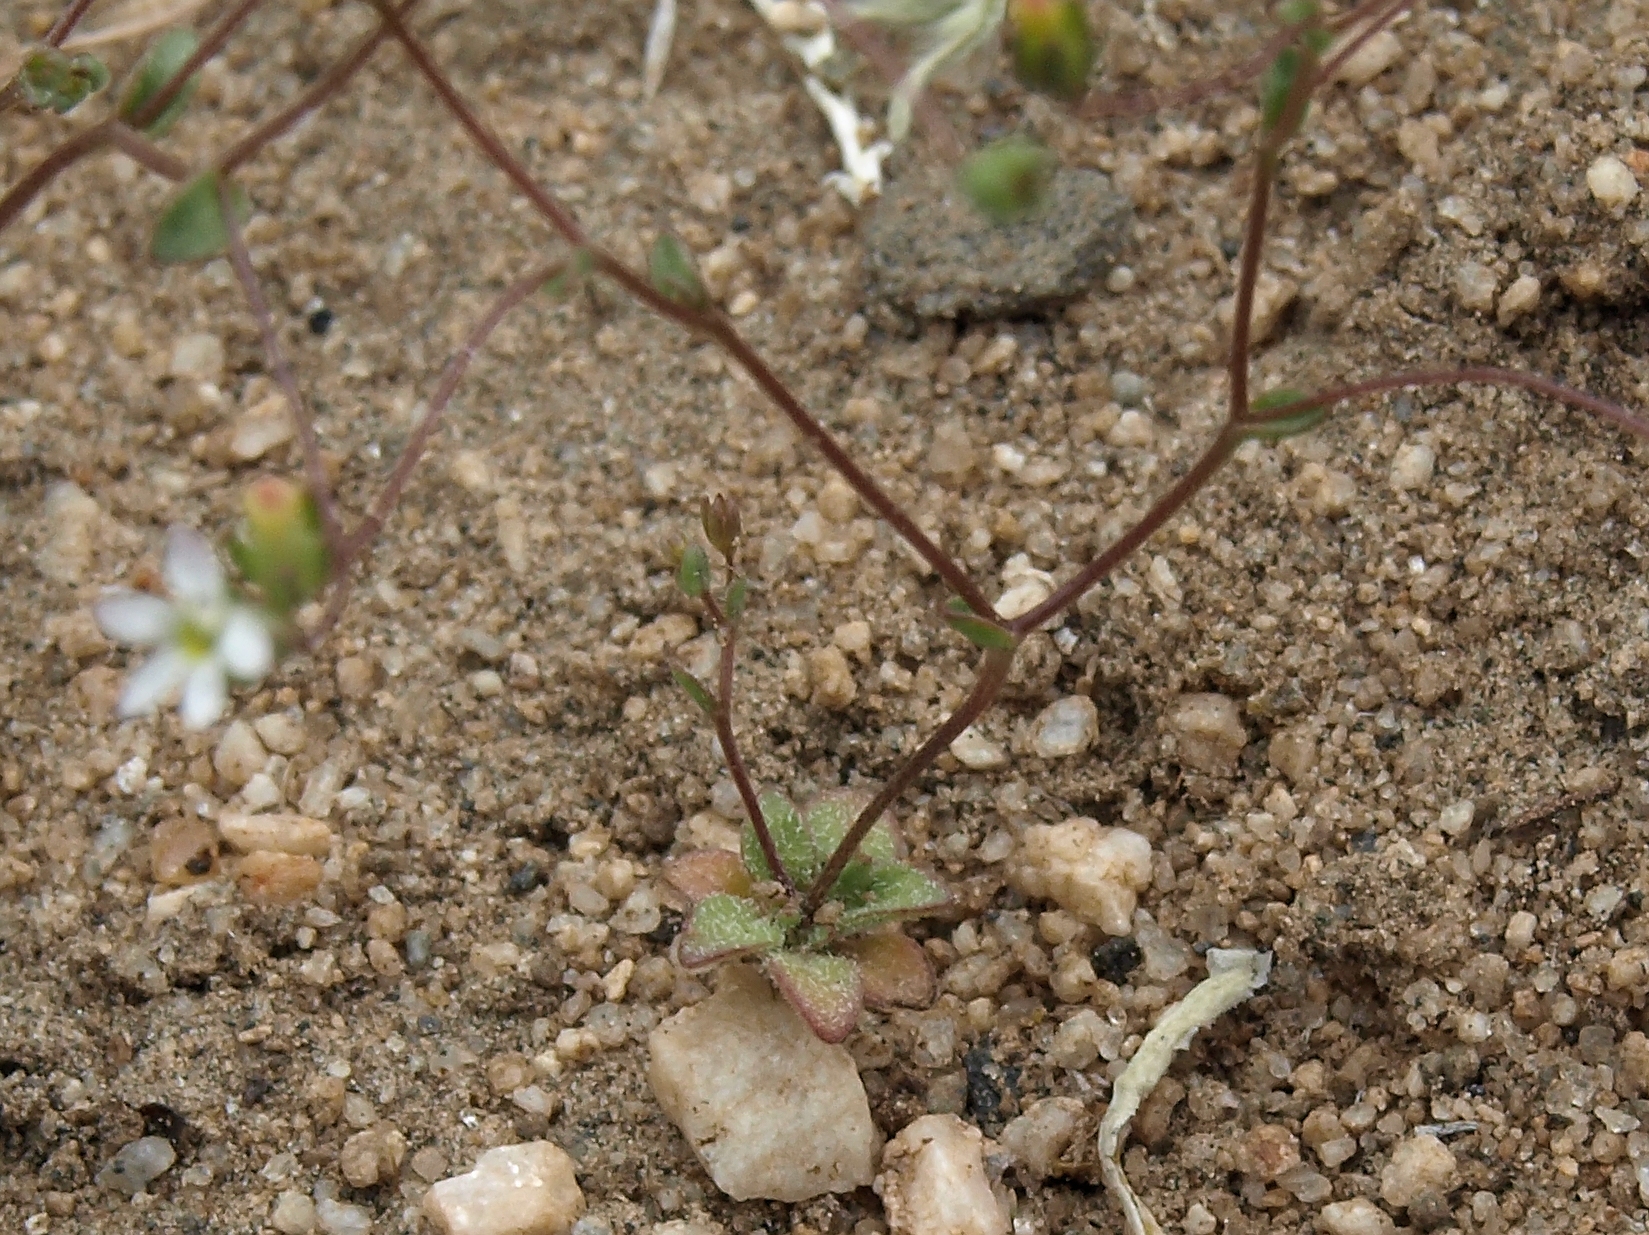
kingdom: Plantae
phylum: Tracheophyta
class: Magnoliopsida
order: Asterales
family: Campanulaceae
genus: Nemacladus
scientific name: Nemacladus sigmoideus
